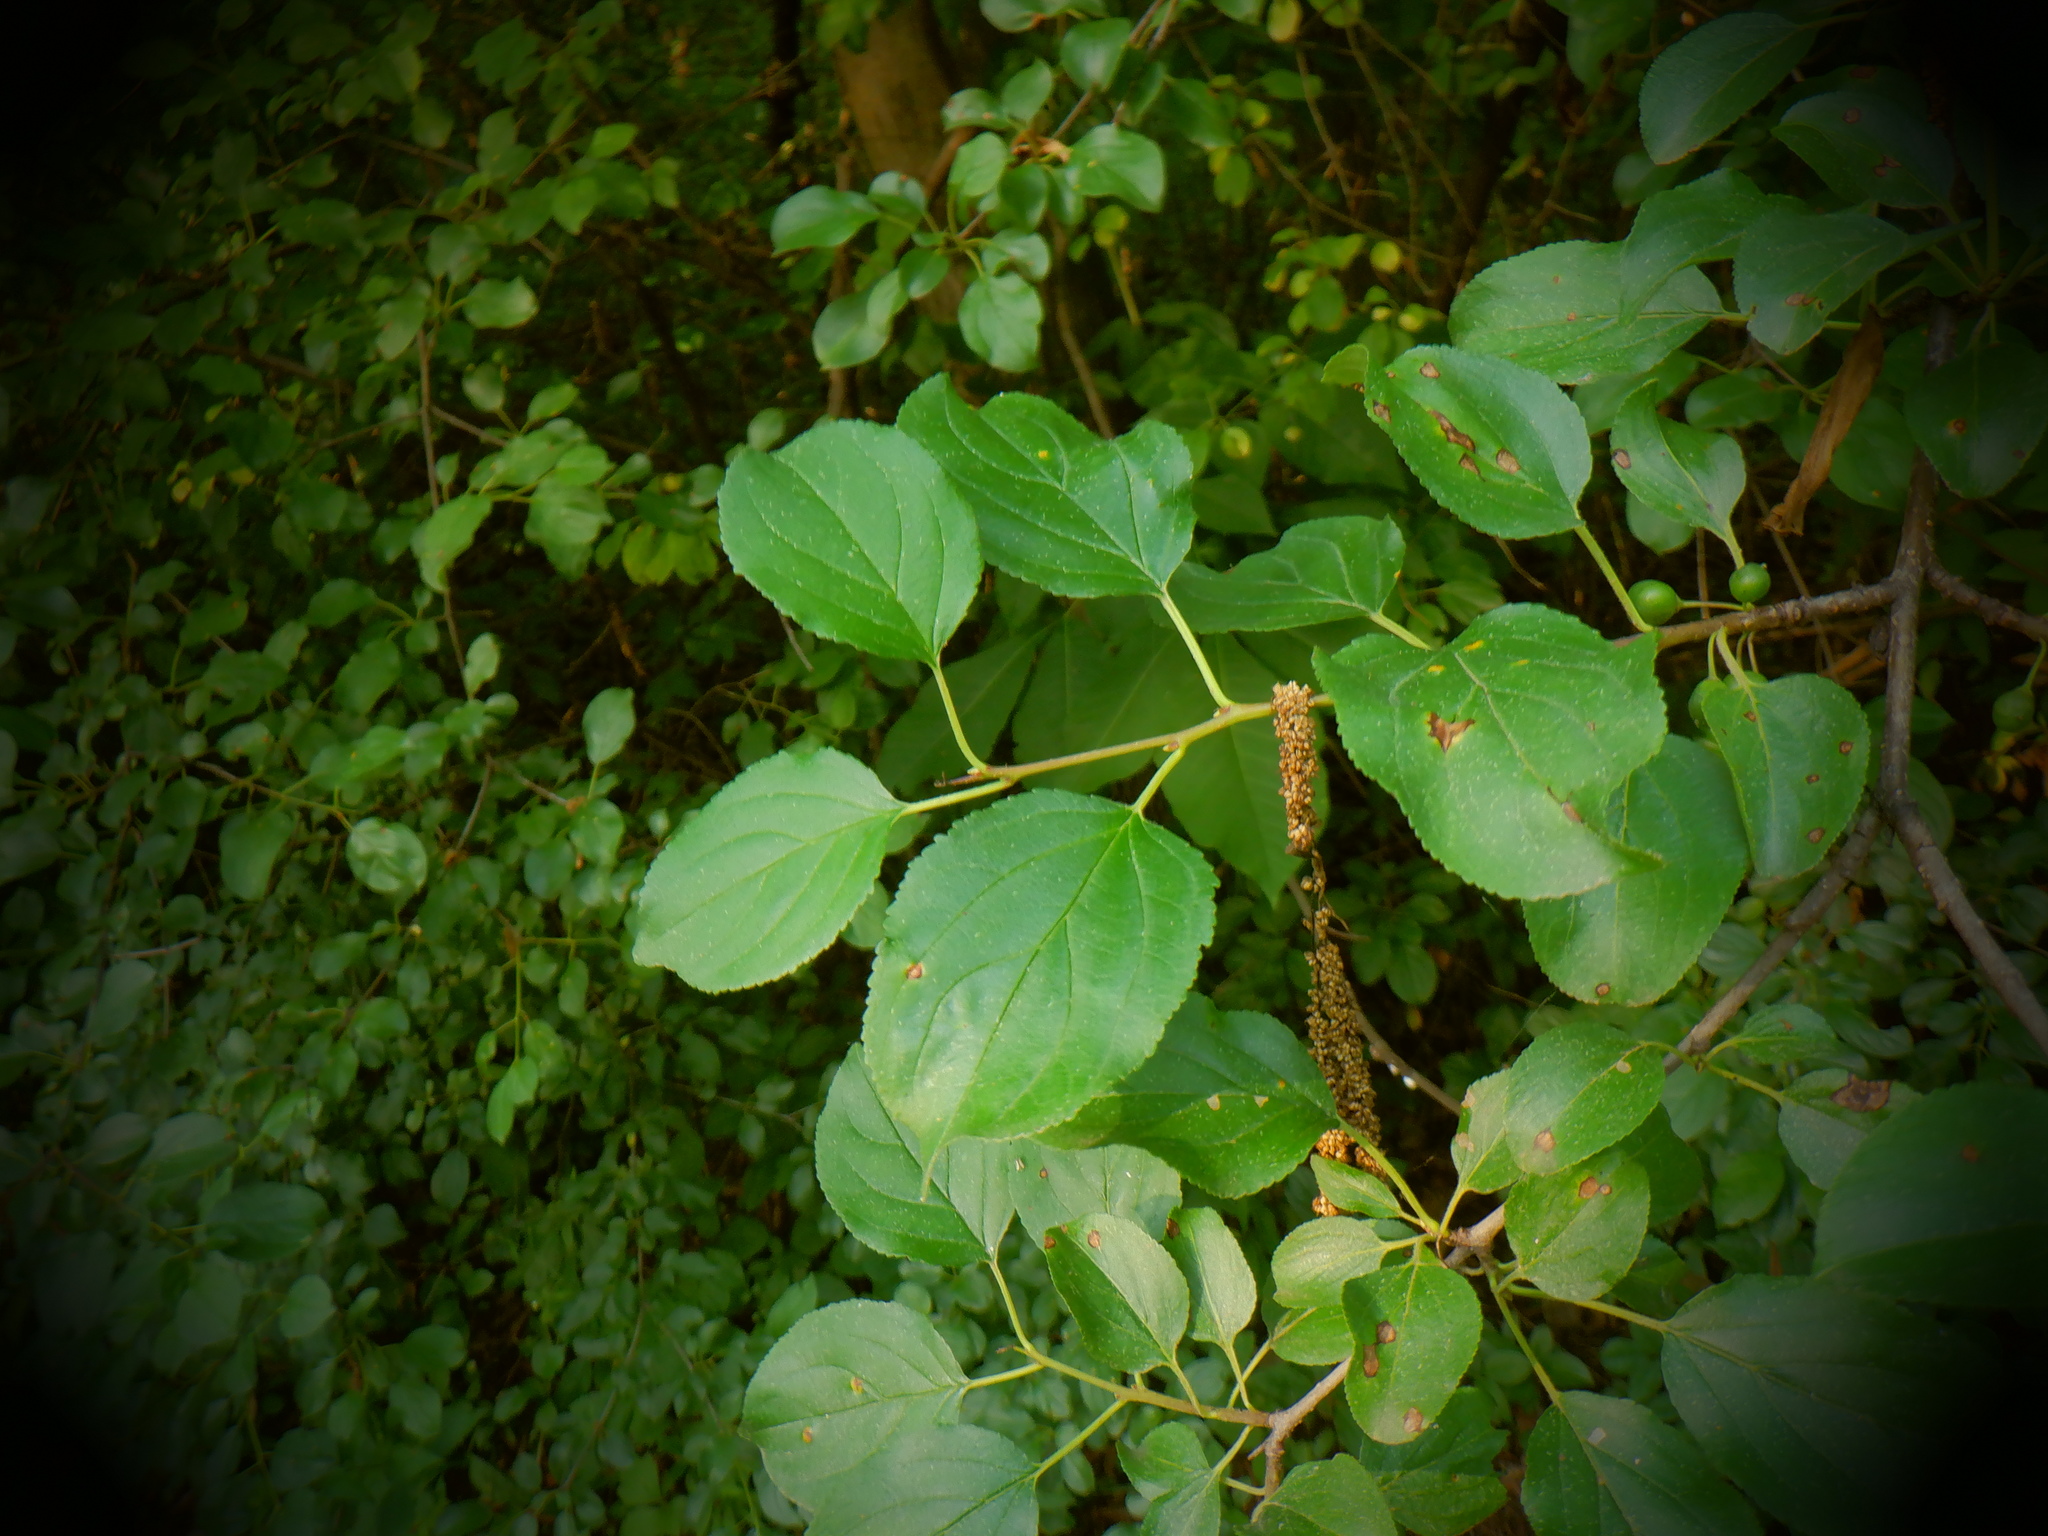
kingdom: Plantae
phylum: Tracheophyta
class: Magnoliopsida
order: Rosales
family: Rhamnaceae
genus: Rhamnus
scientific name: Rhamnus cathartica
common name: Common buckthorn
